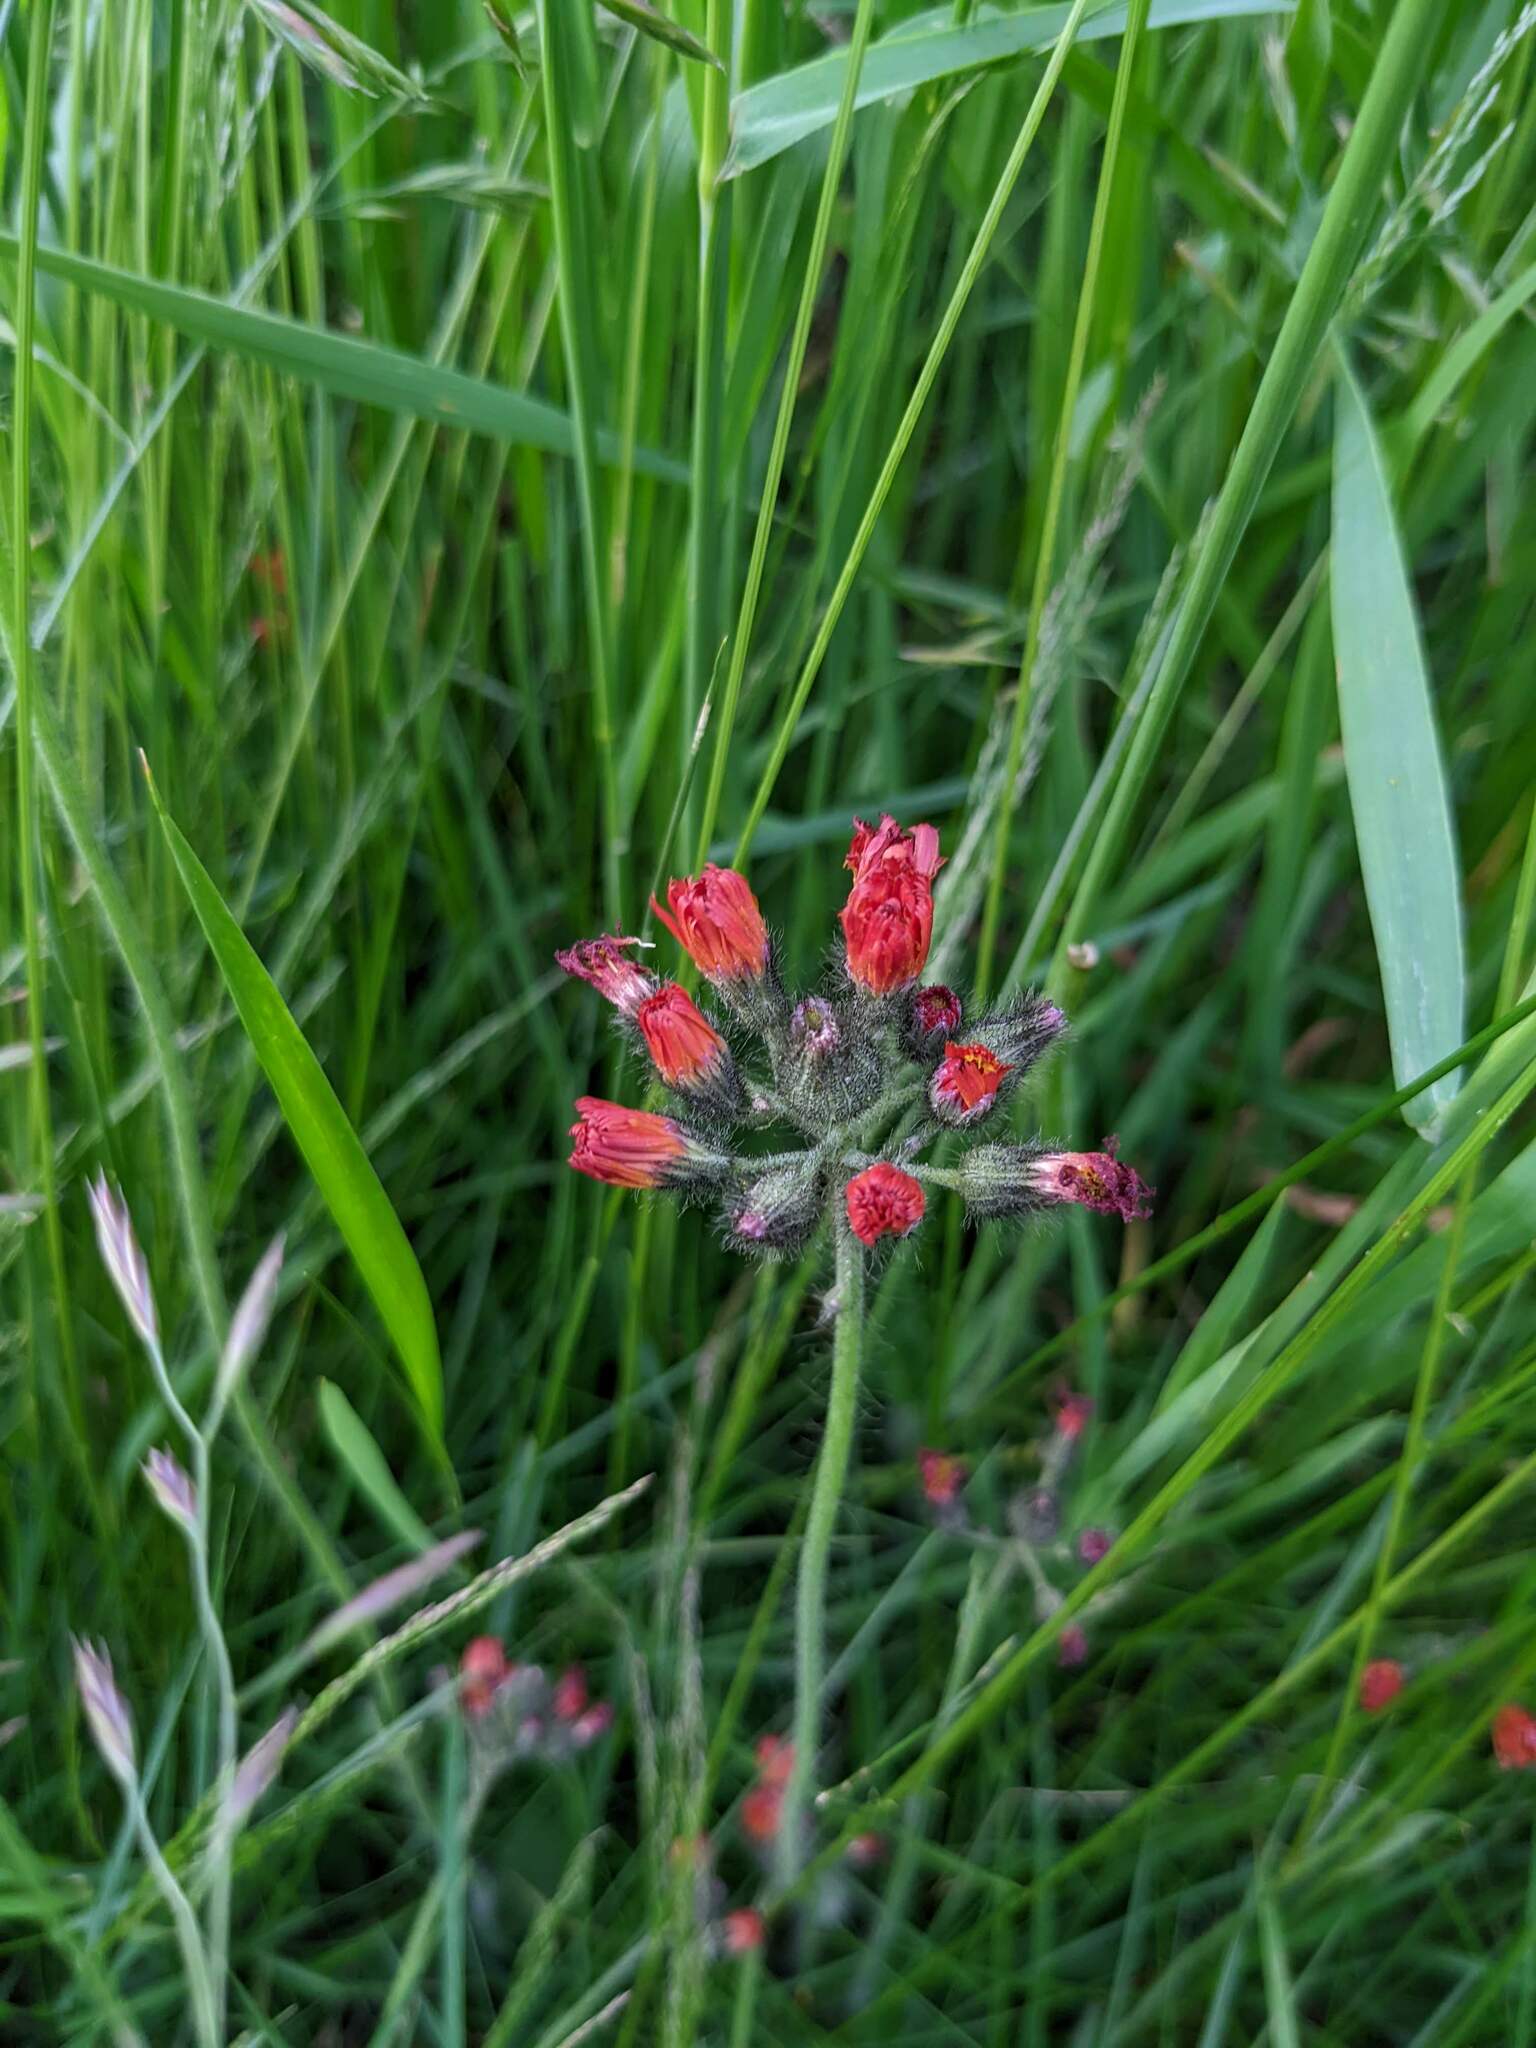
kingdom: Plantae
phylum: Tracheophyta
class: Magnoliopsida
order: Asterales
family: Asteraceae
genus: Pilosella
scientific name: Pilosella aurantiaca
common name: Fox-and-cubs
